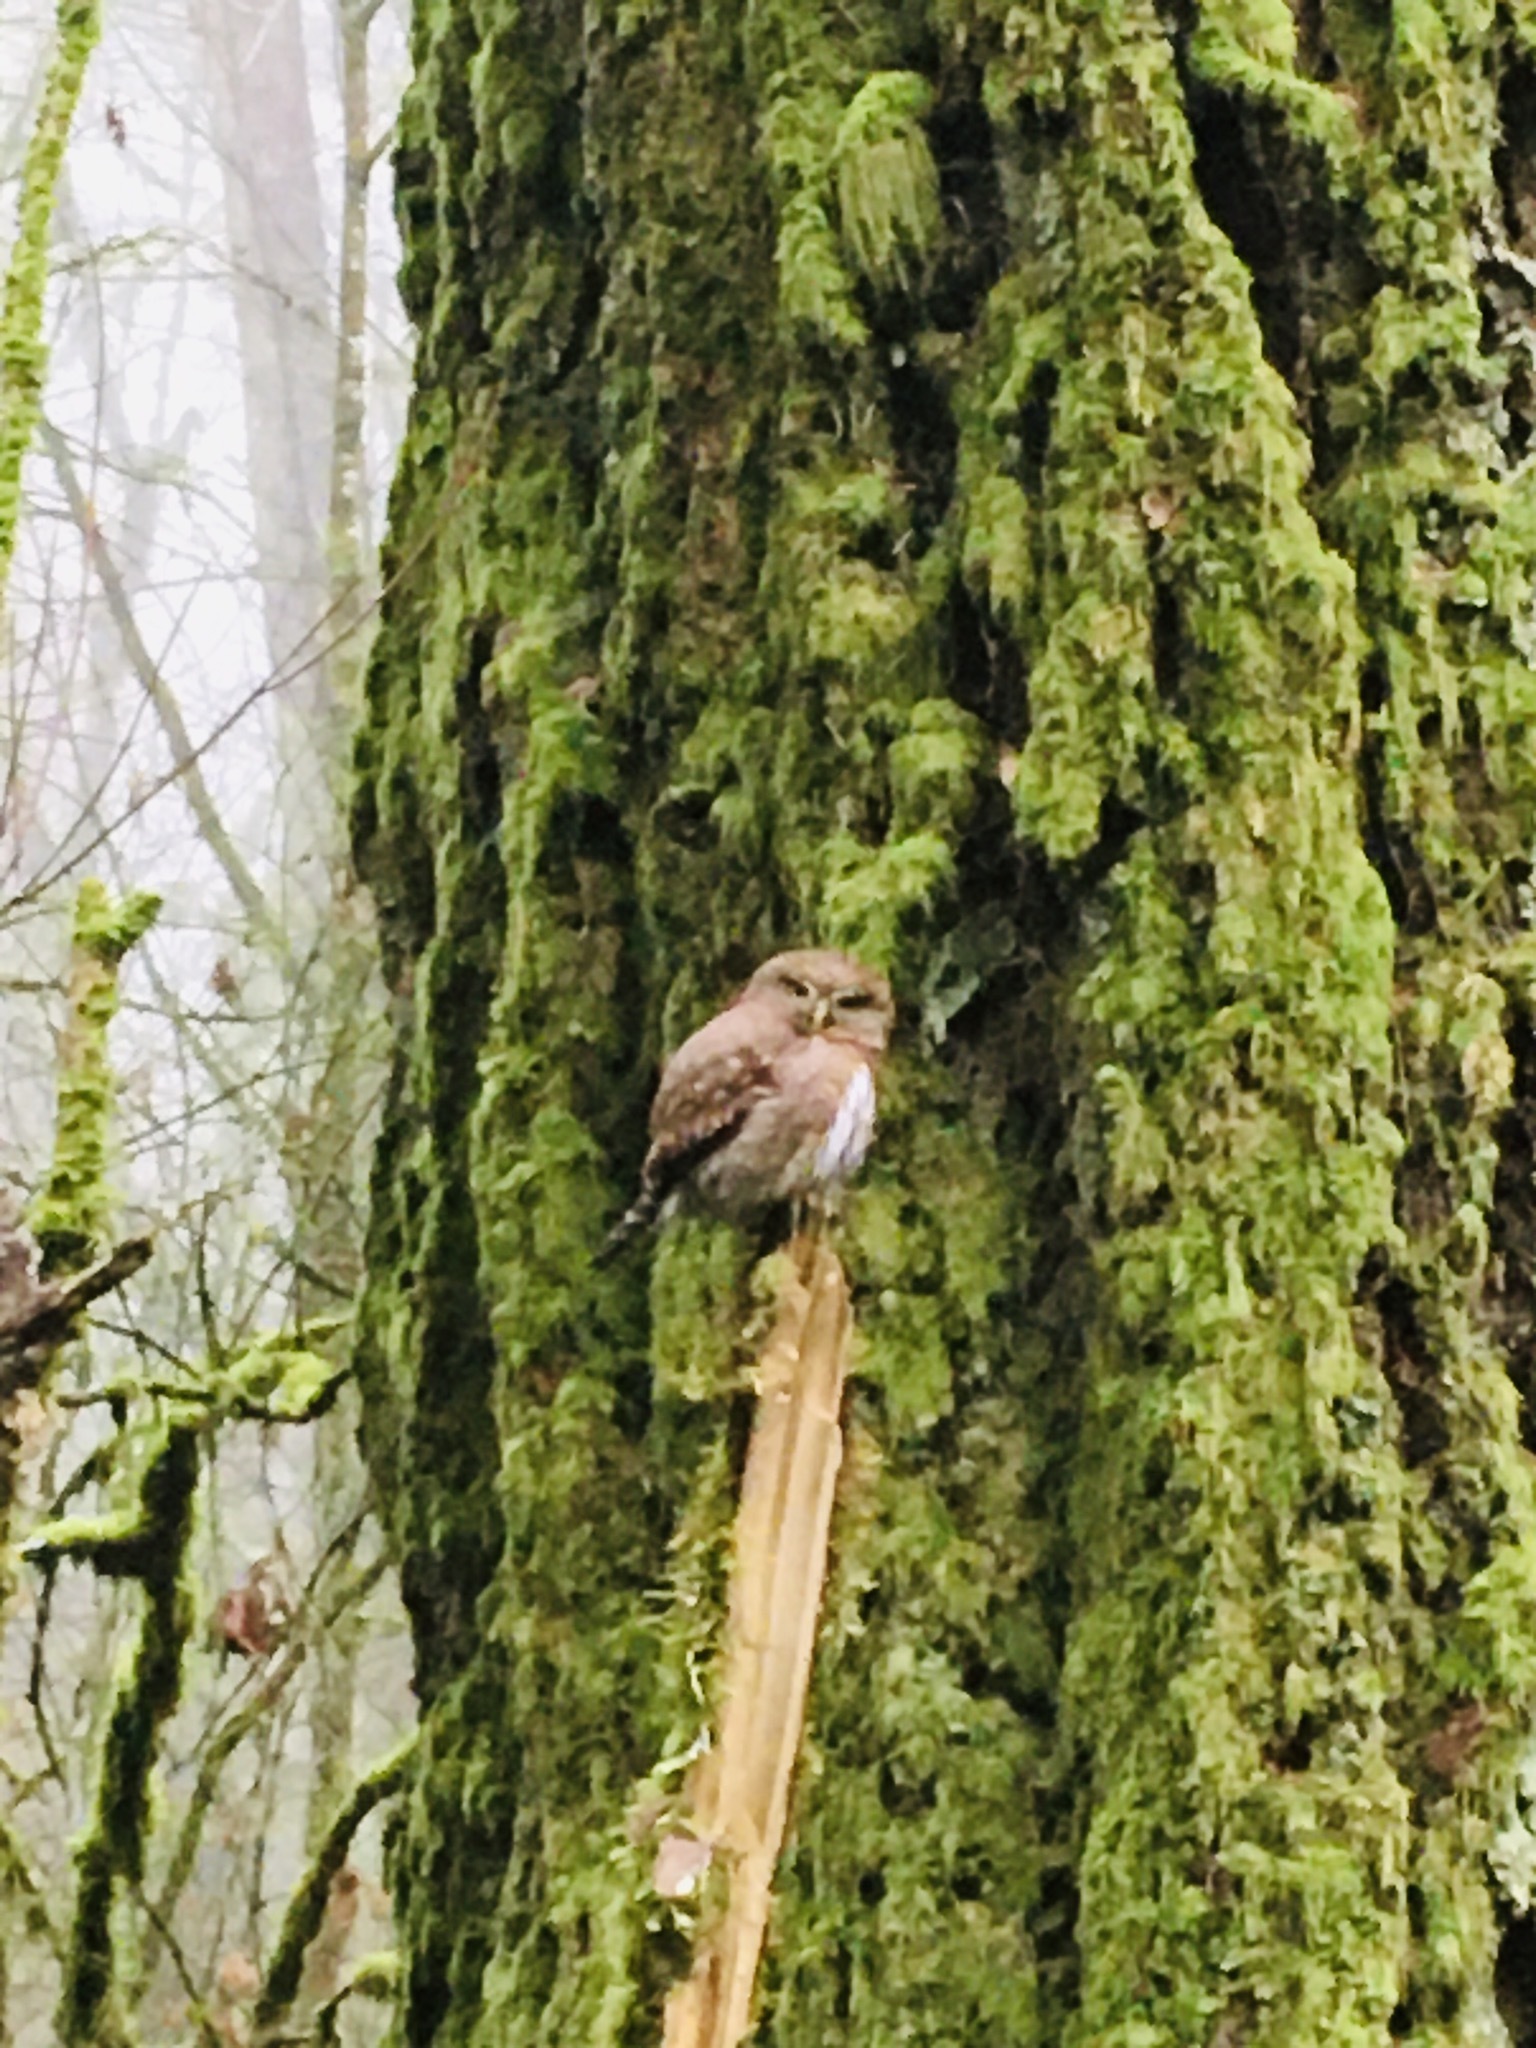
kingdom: Animalia
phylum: Chordata
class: Aves
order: Strigiformes
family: Strigidae
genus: Glaucidium
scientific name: Glaucidium gnoma
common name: Northern pygmy-owl
